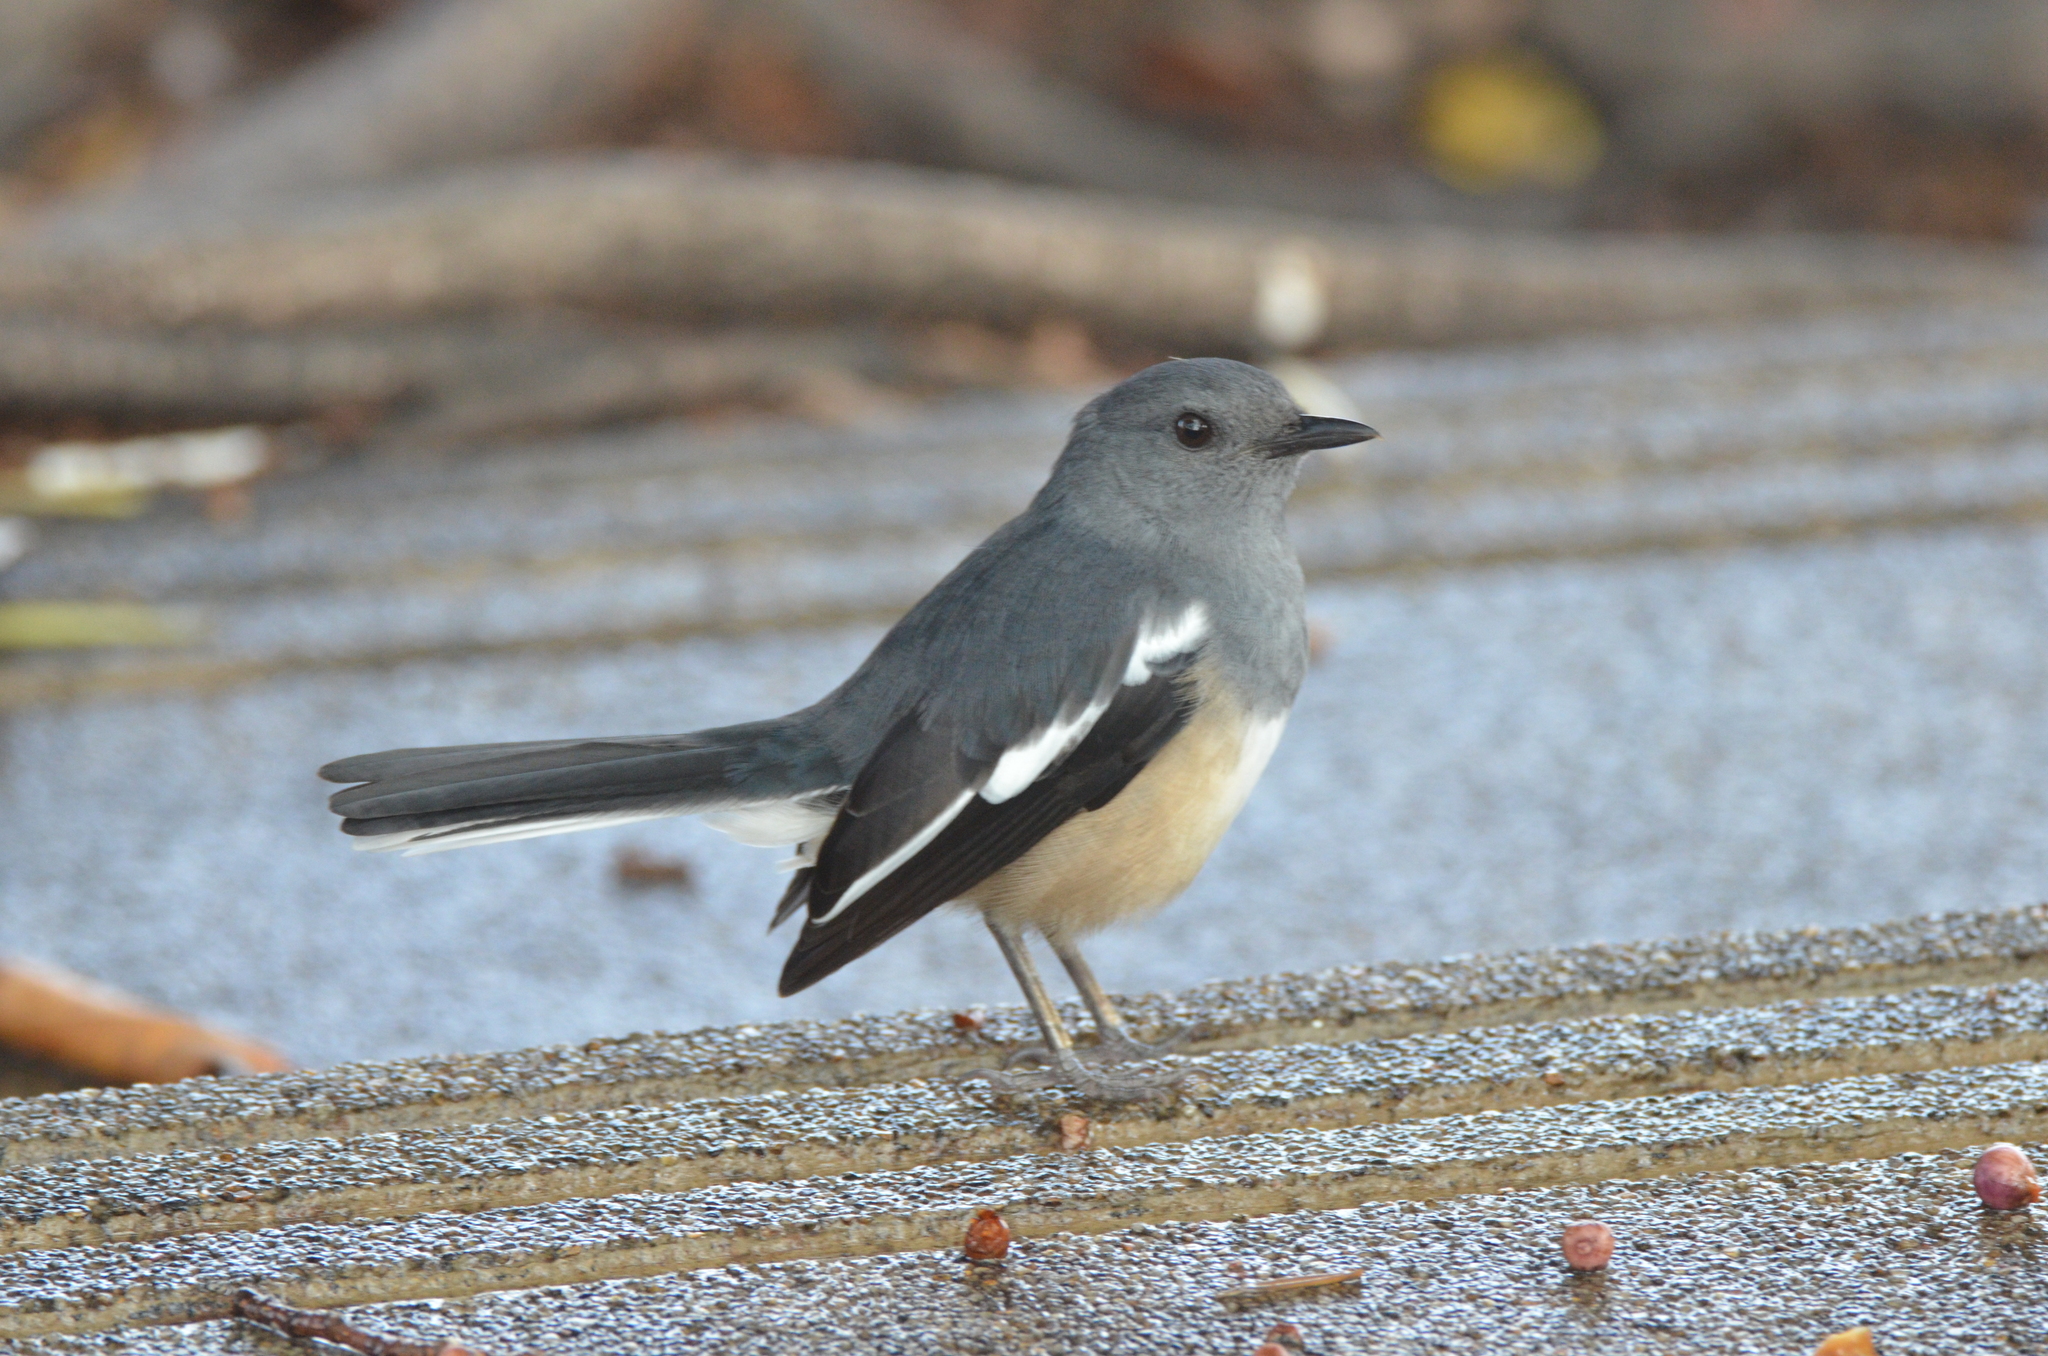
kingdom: Animalia
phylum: Chordata
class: Aves
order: Passeriformes
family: Muscicapidae
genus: Copsychus
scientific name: Copsychus saularis
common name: Oriental magpie-robin
